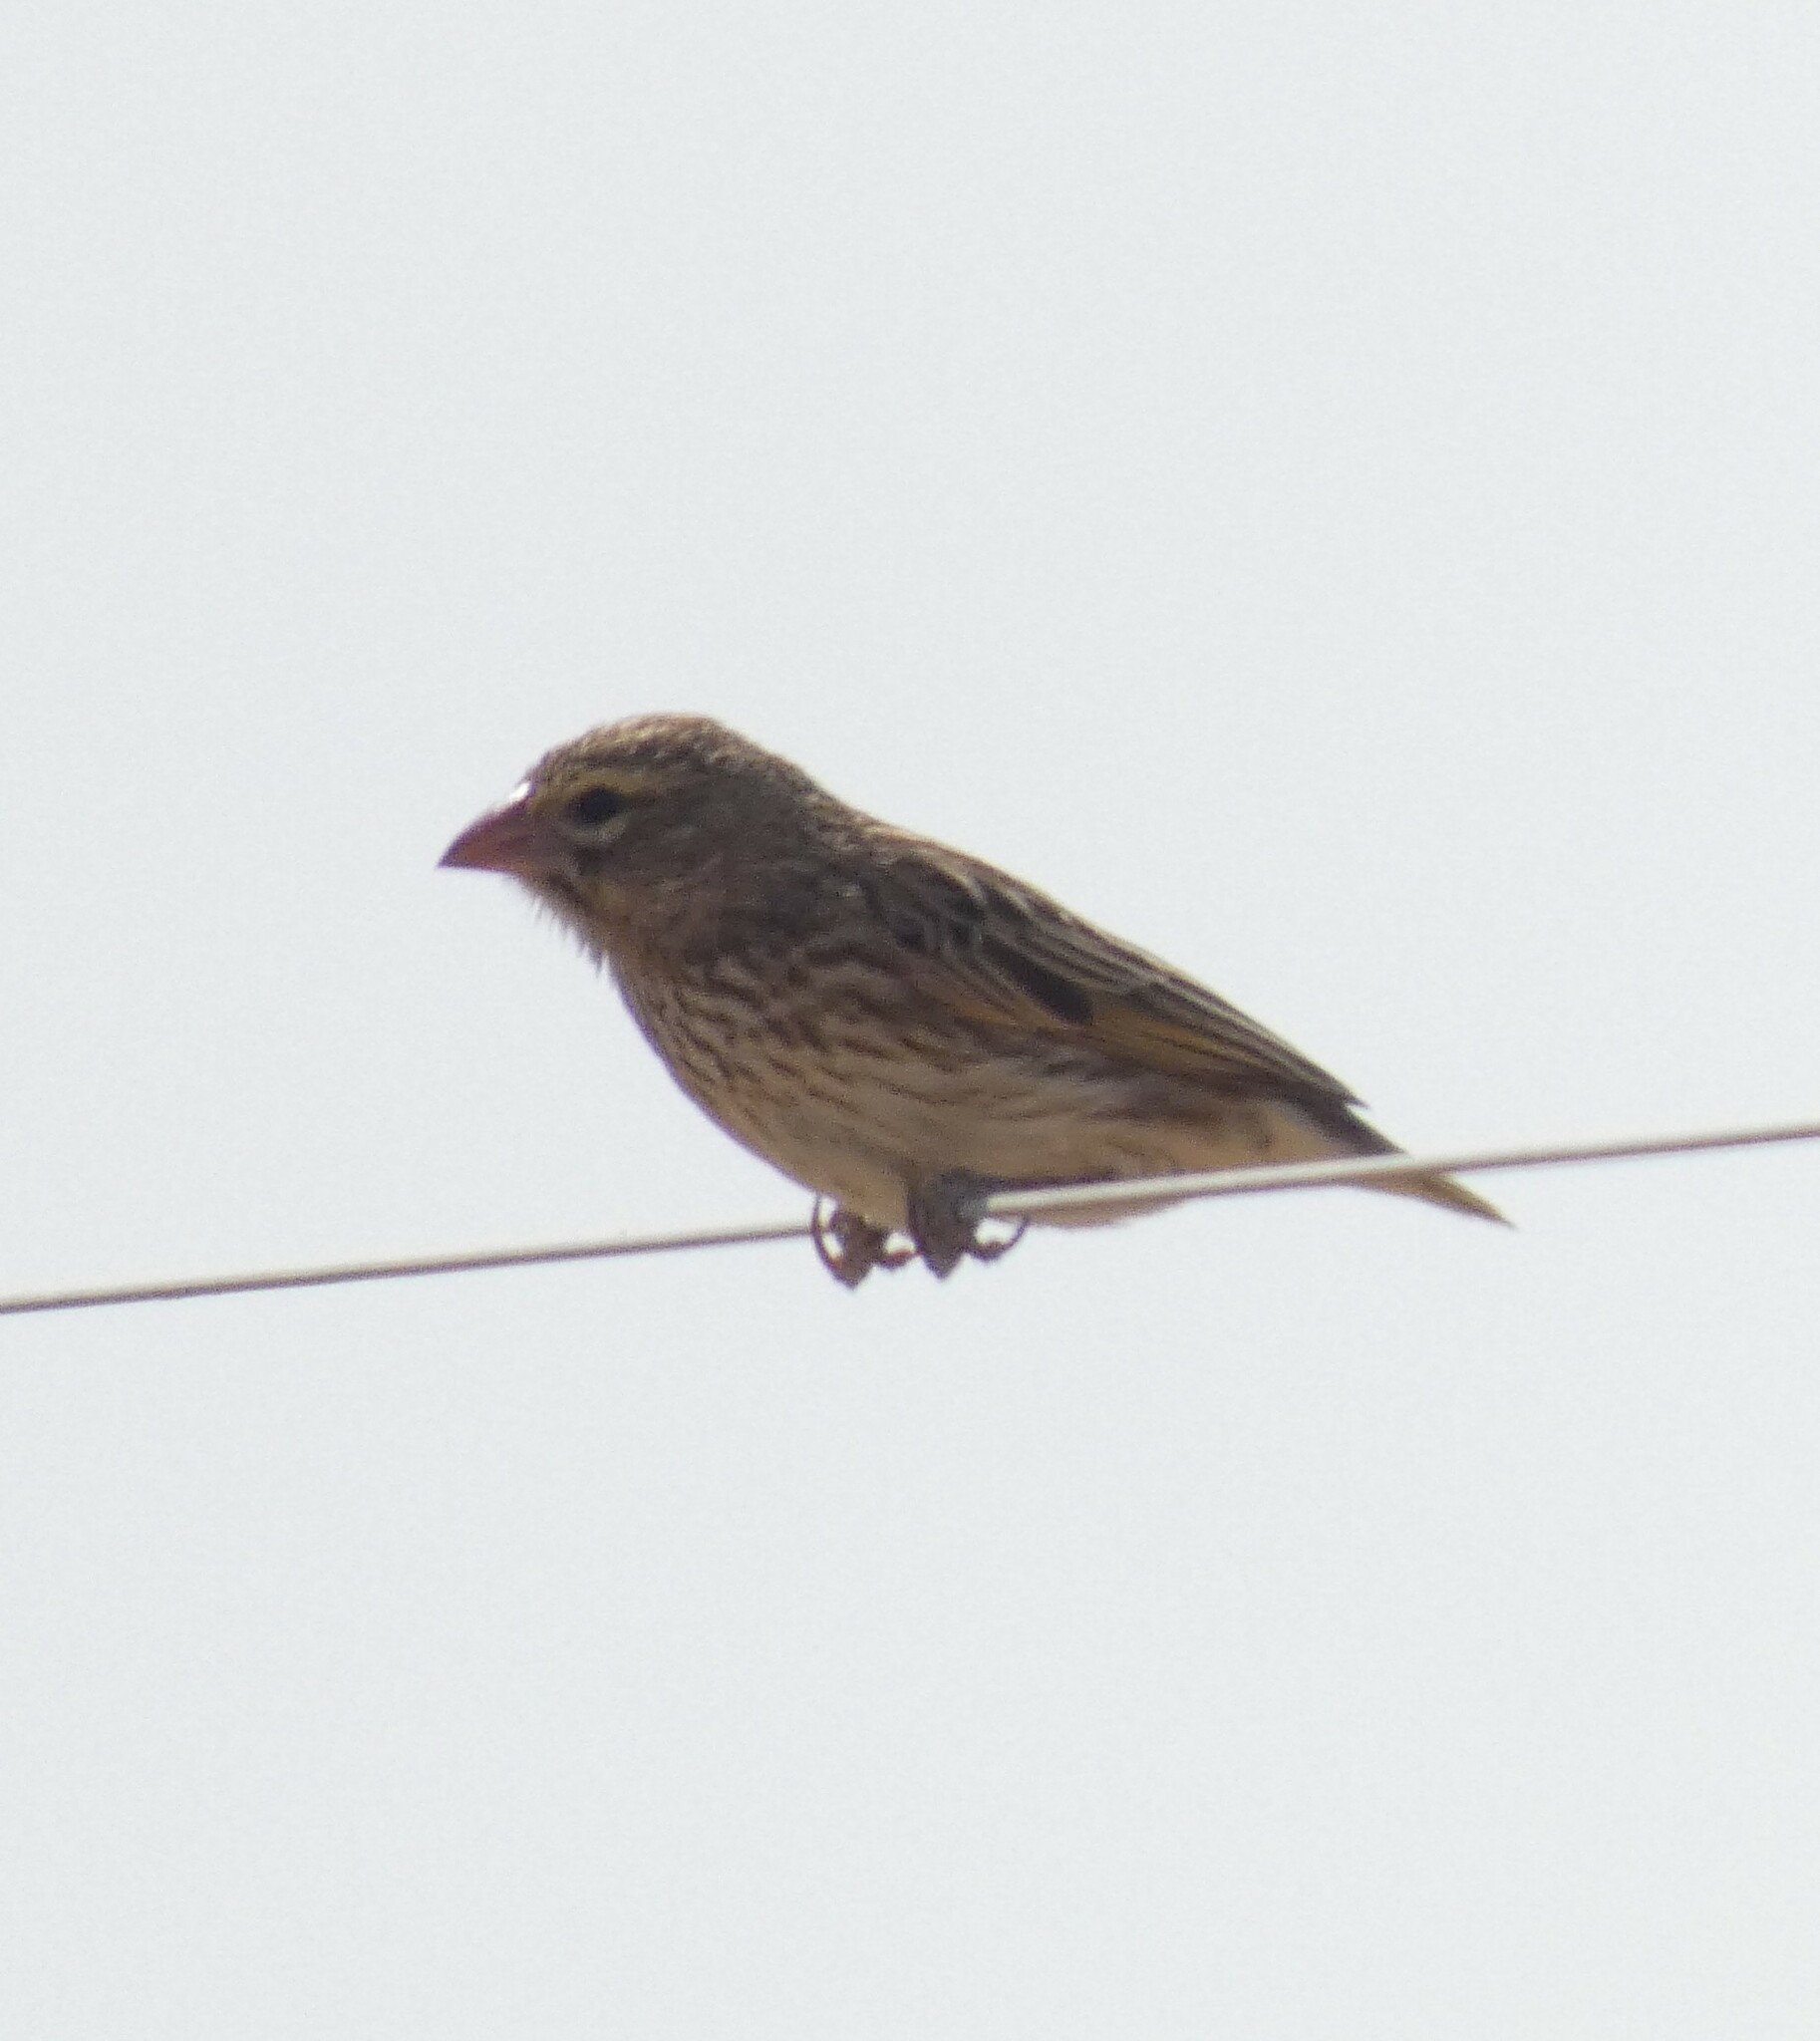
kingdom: Animalia
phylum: Chordata
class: Aves
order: Passeriformes
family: Ploceidae
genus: Euplectes
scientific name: Euplectes orix
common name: Southern red bishop
